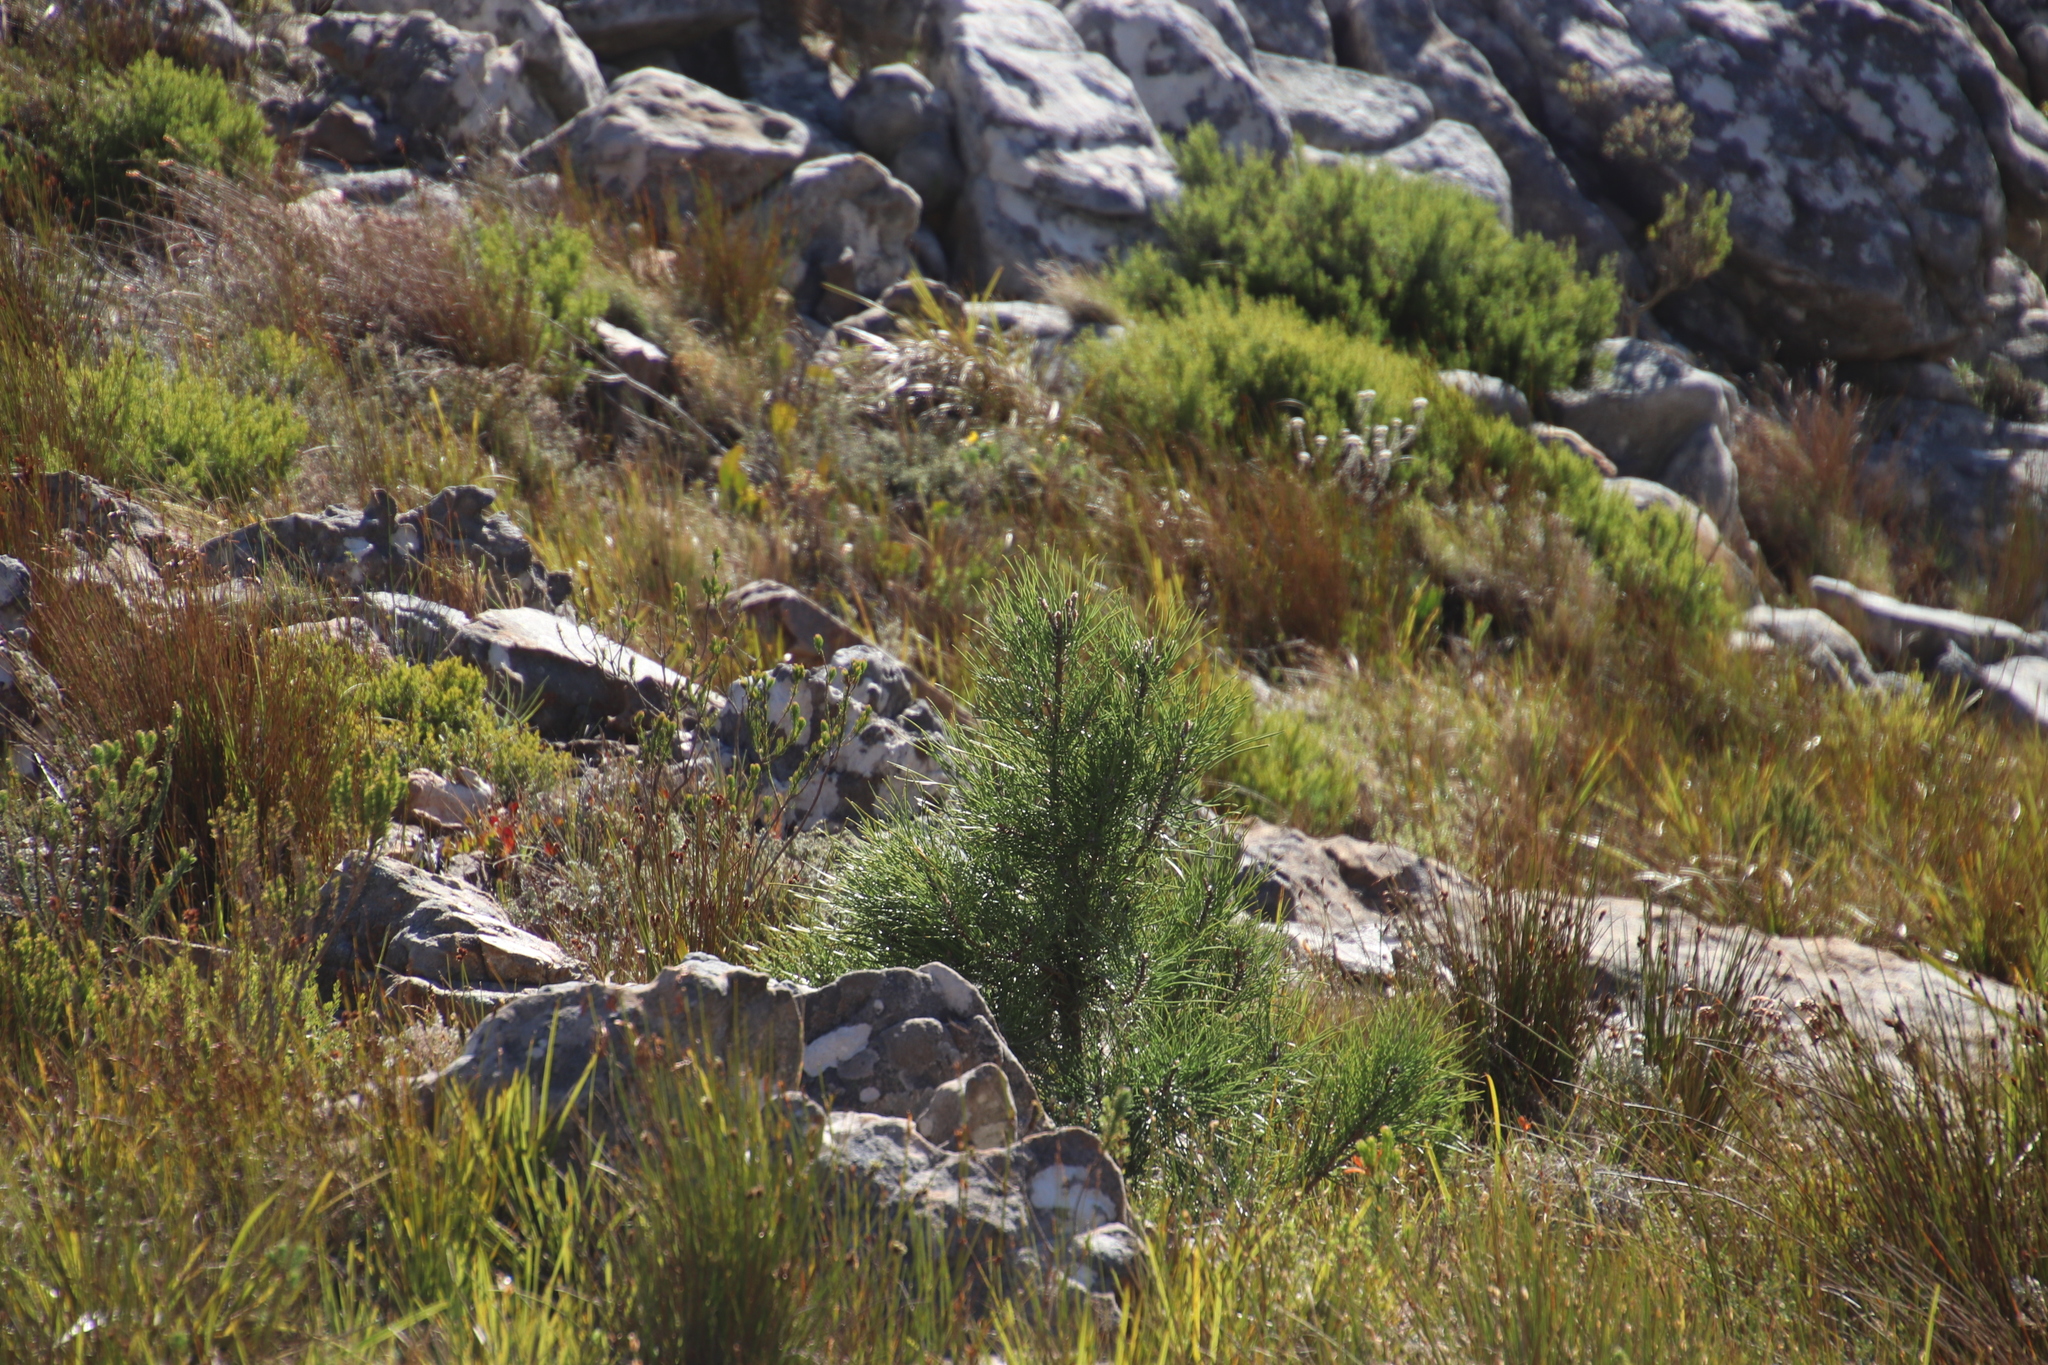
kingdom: Plantae
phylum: Tracheophyta
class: Pinopsida
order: Pinales
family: Pinaceae
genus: Pinus
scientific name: Pinus pinaster
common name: Maritime pine
